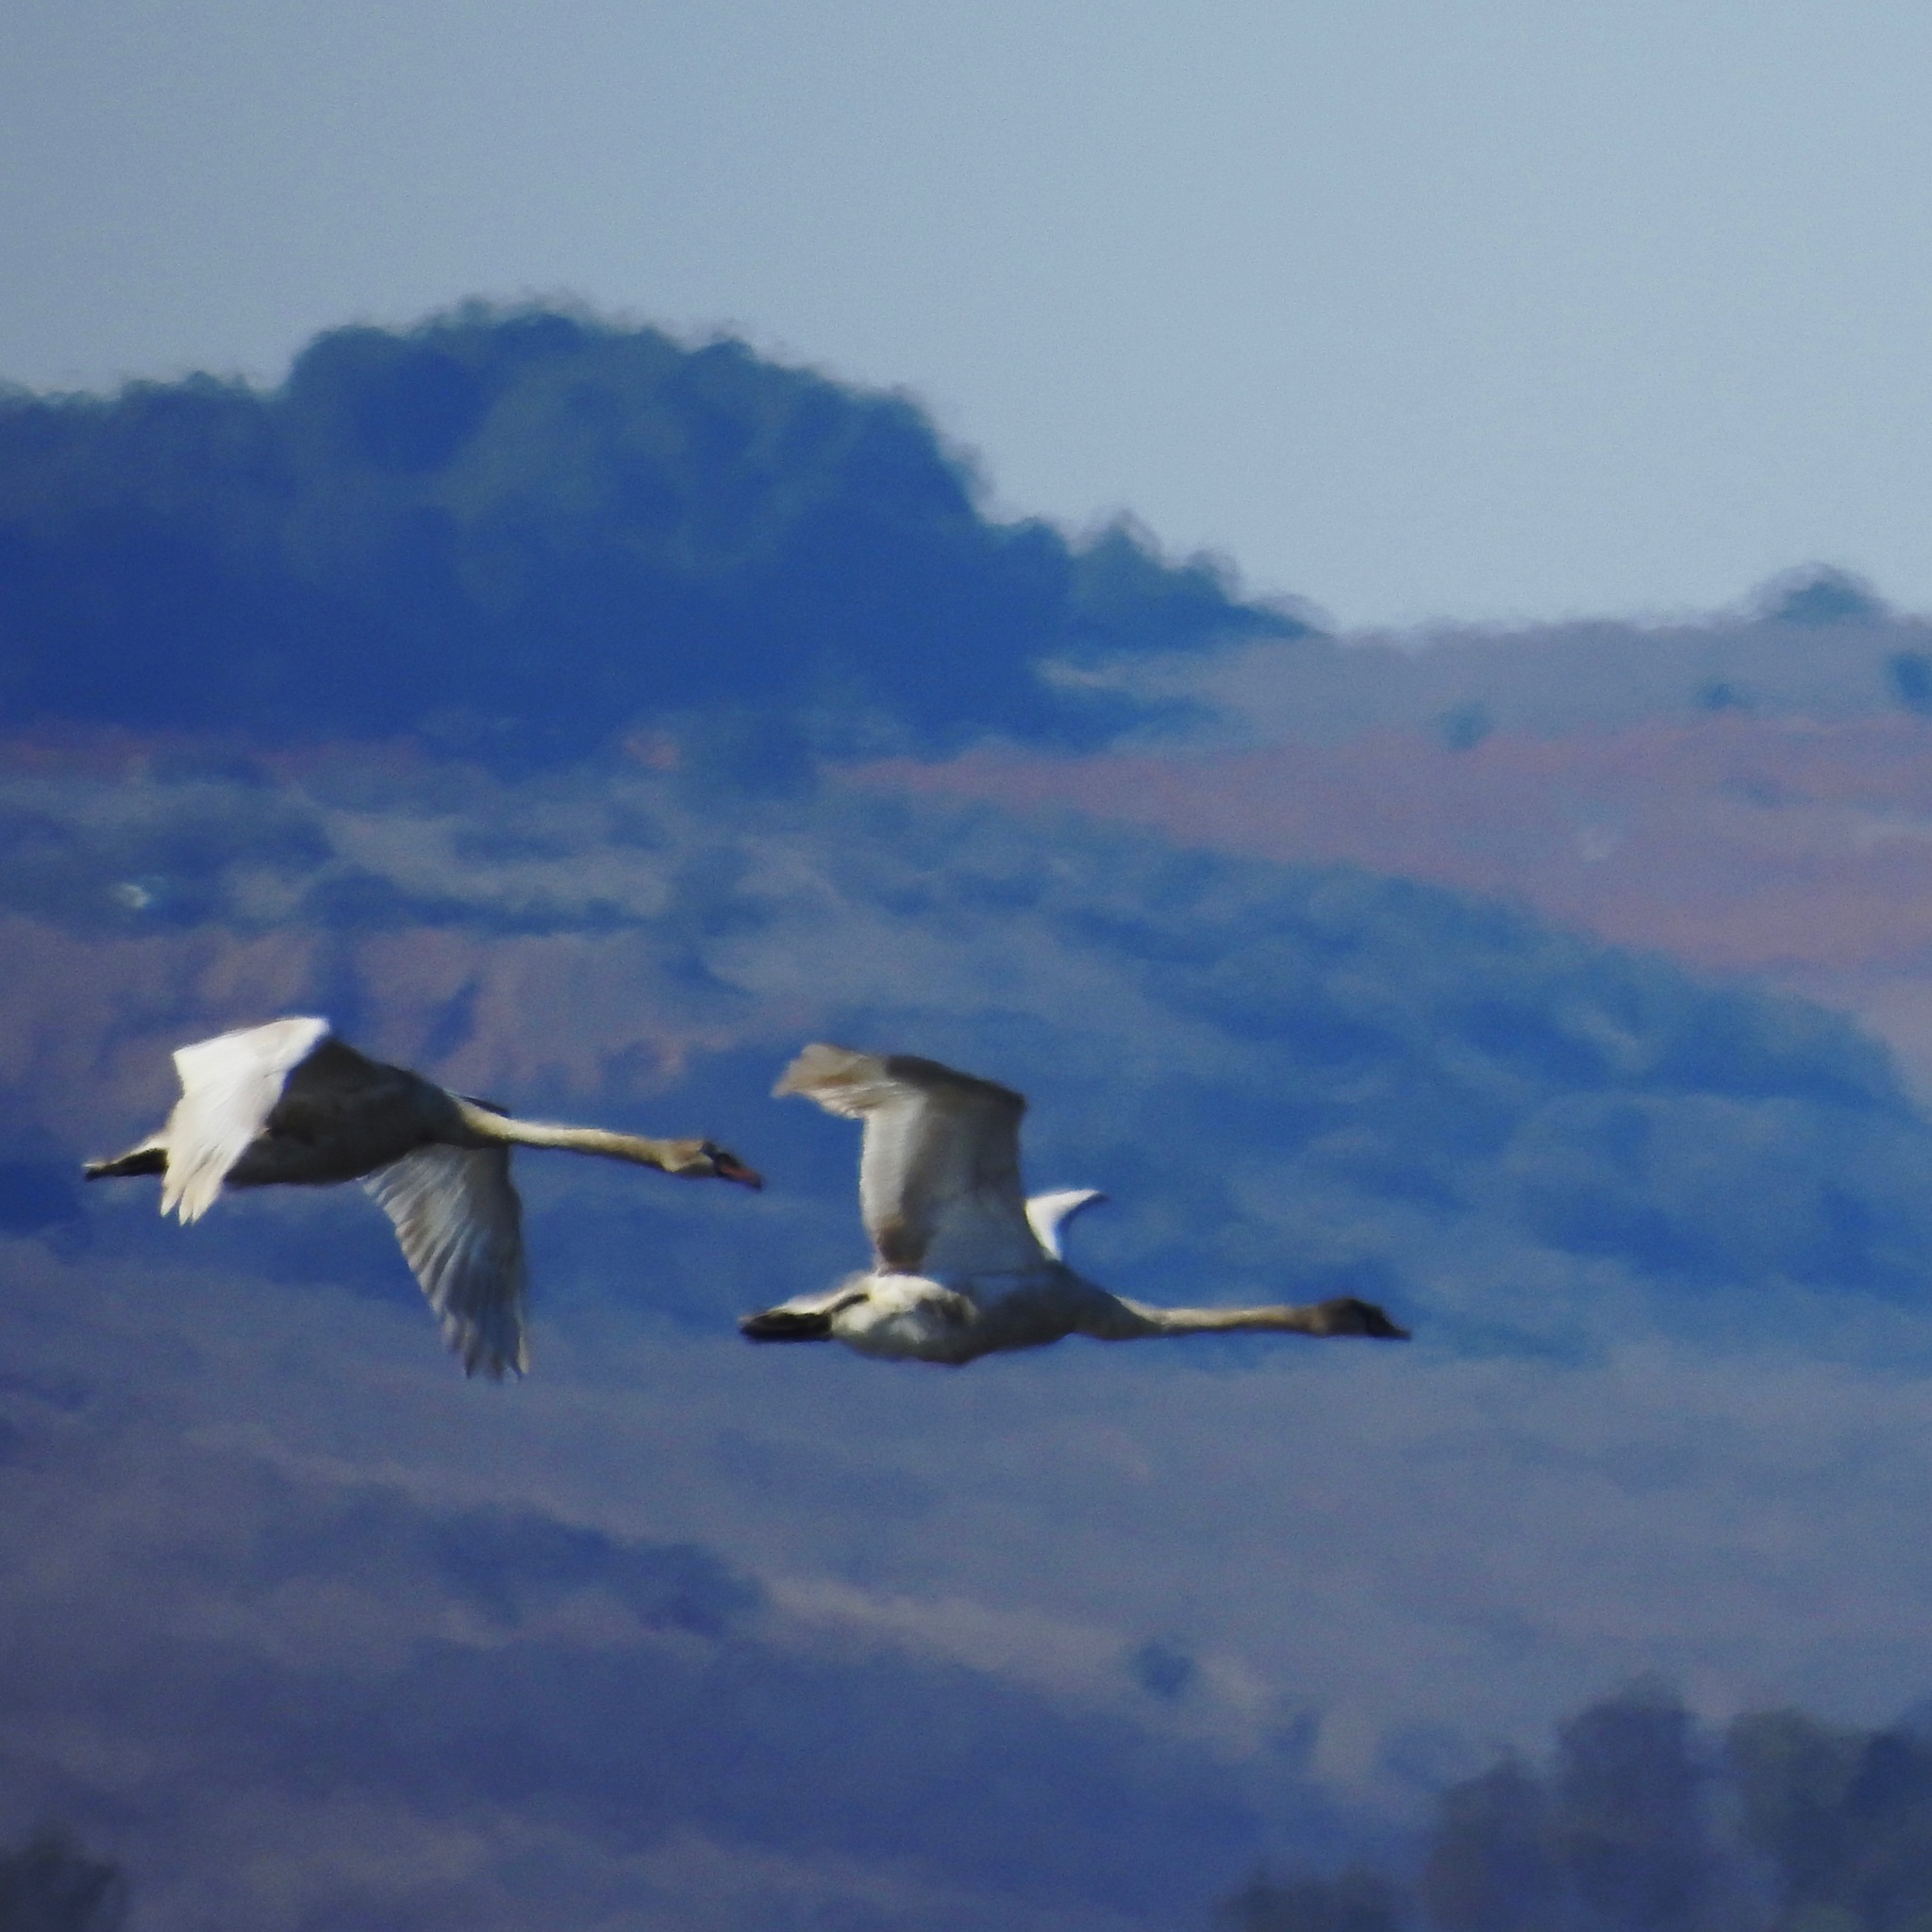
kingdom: Animalia
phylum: Chordata
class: Aves
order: Anseriformes
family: Anatidae
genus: Cygnus
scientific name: Cygnus olor
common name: Mute swan
